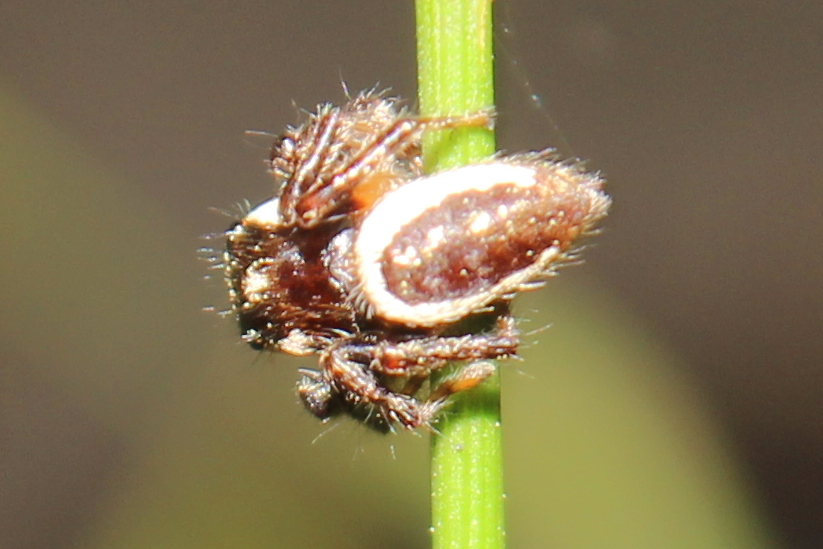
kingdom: Animalia
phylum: Arthropoda
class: Arachnida
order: Araneae
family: Salticidae
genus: Eris
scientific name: Eris militaris
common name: Bronze jumper
